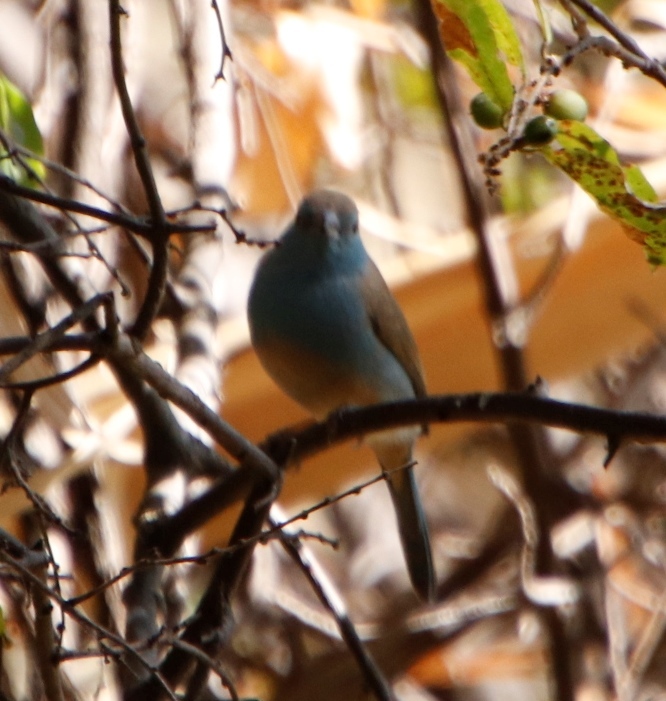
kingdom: Animalia
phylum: Chordata
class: Aves
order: Passeriformes
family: Estrildidae
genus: Uraeginthus
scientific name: Uraeginthus angolensis
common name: Blue waxbill
